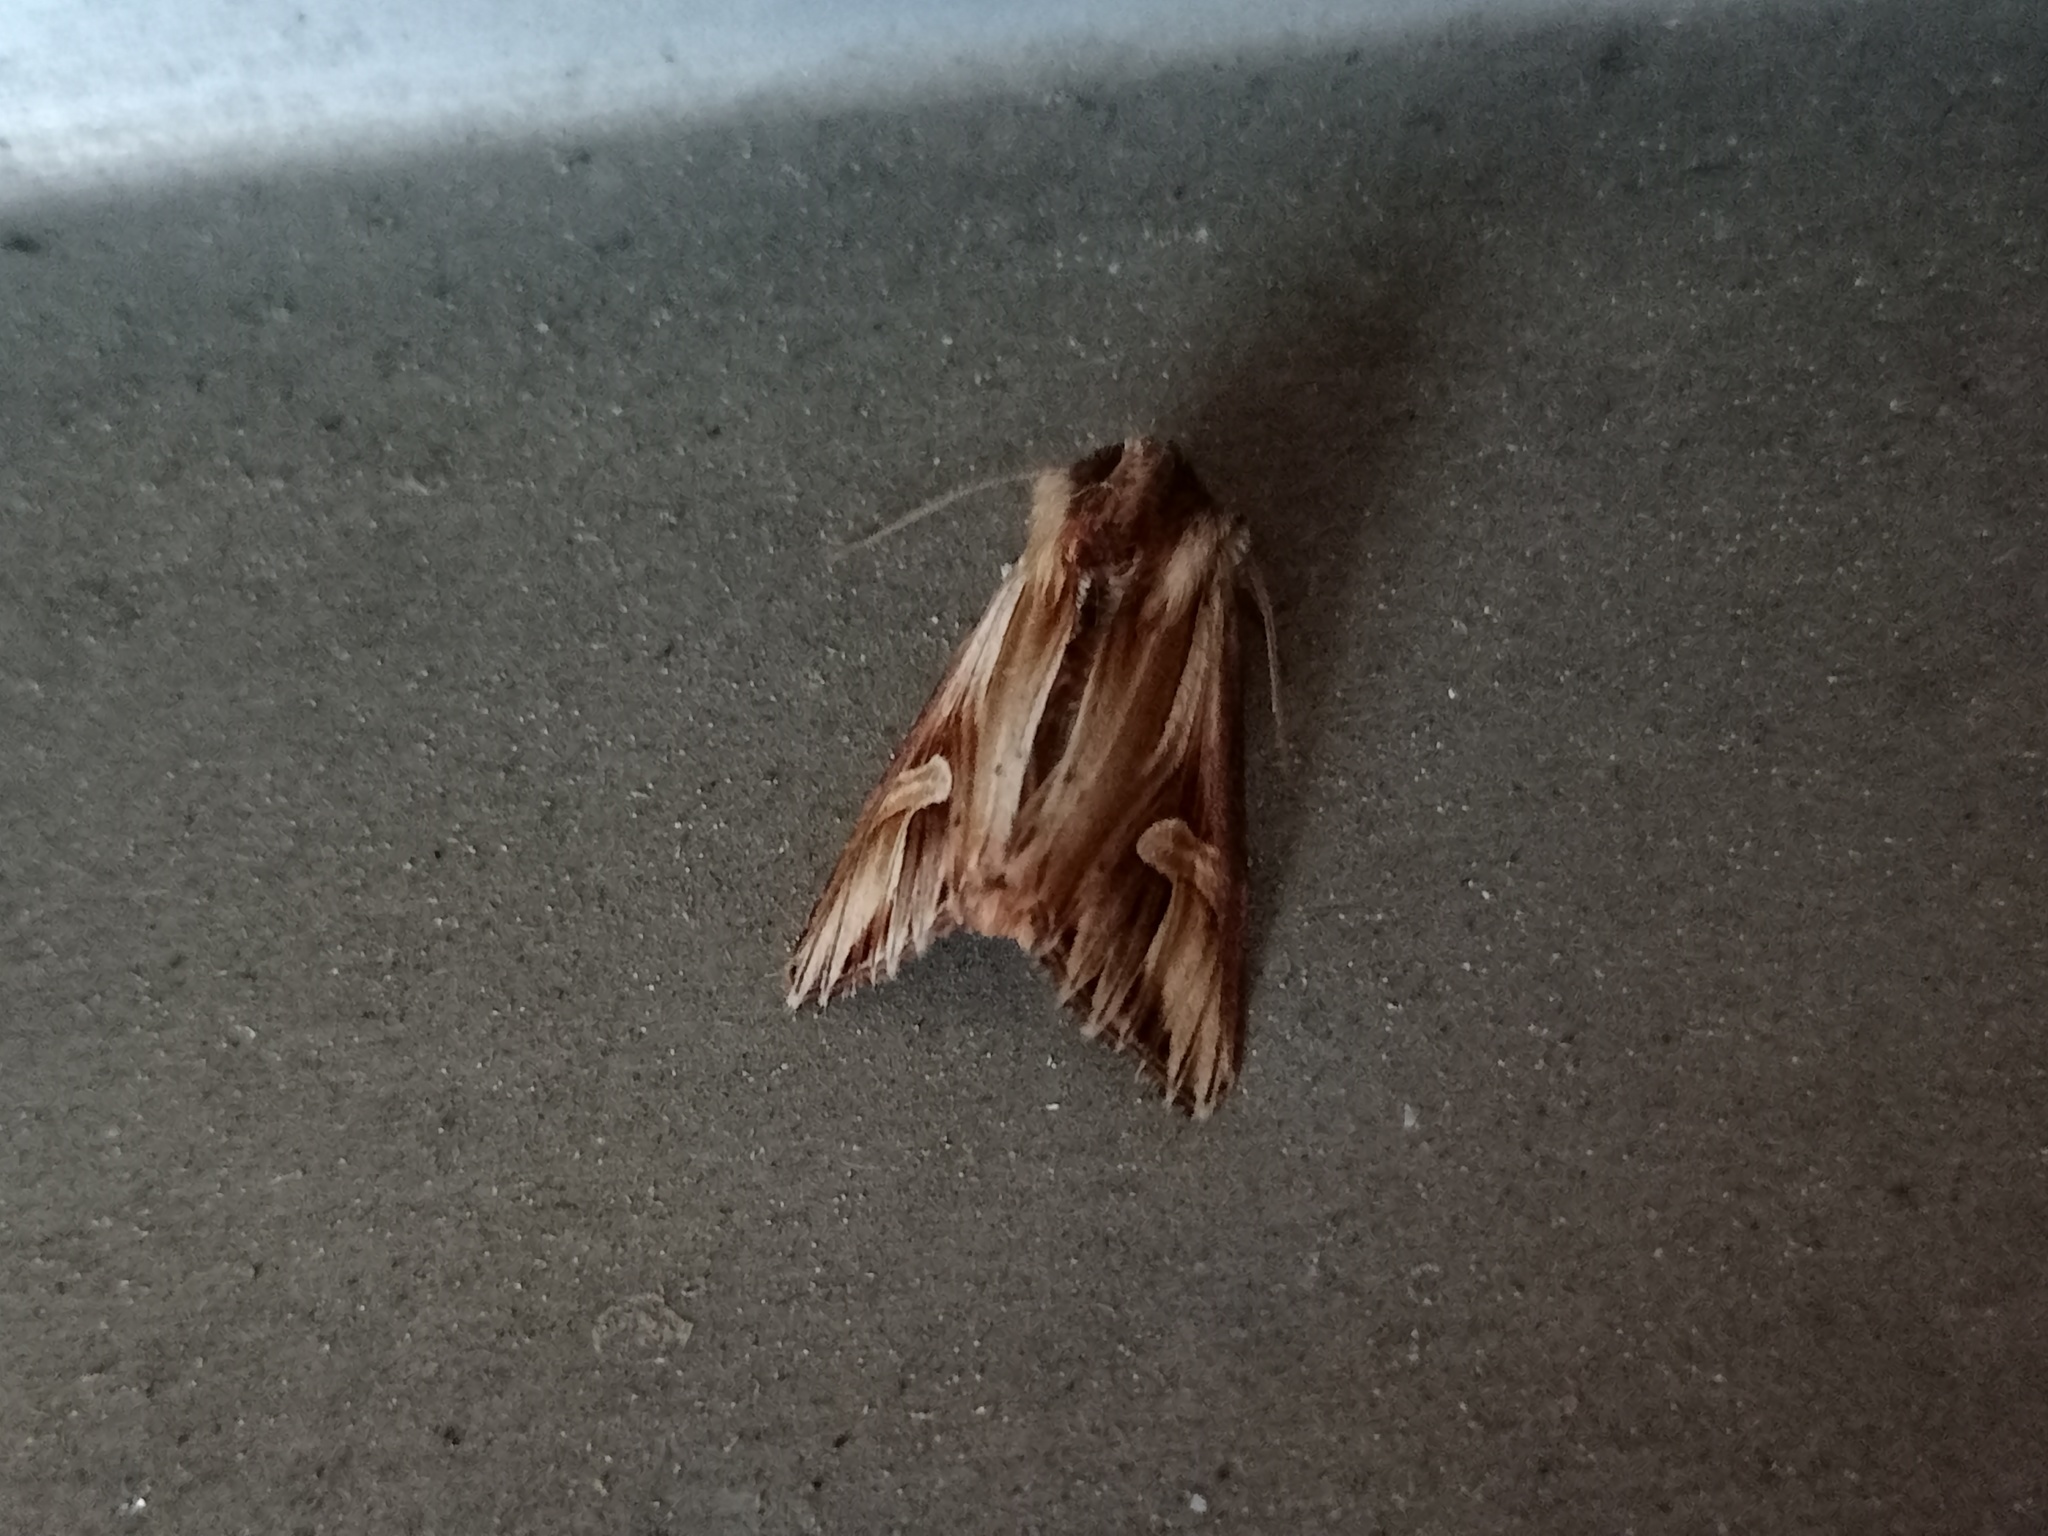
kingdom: Animalia
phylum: Arthropoda
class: Insecta
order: Lepidoptera
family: Noctuidae
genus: Actinotia
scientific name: Actinotia polyodon
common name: Purple cloud
